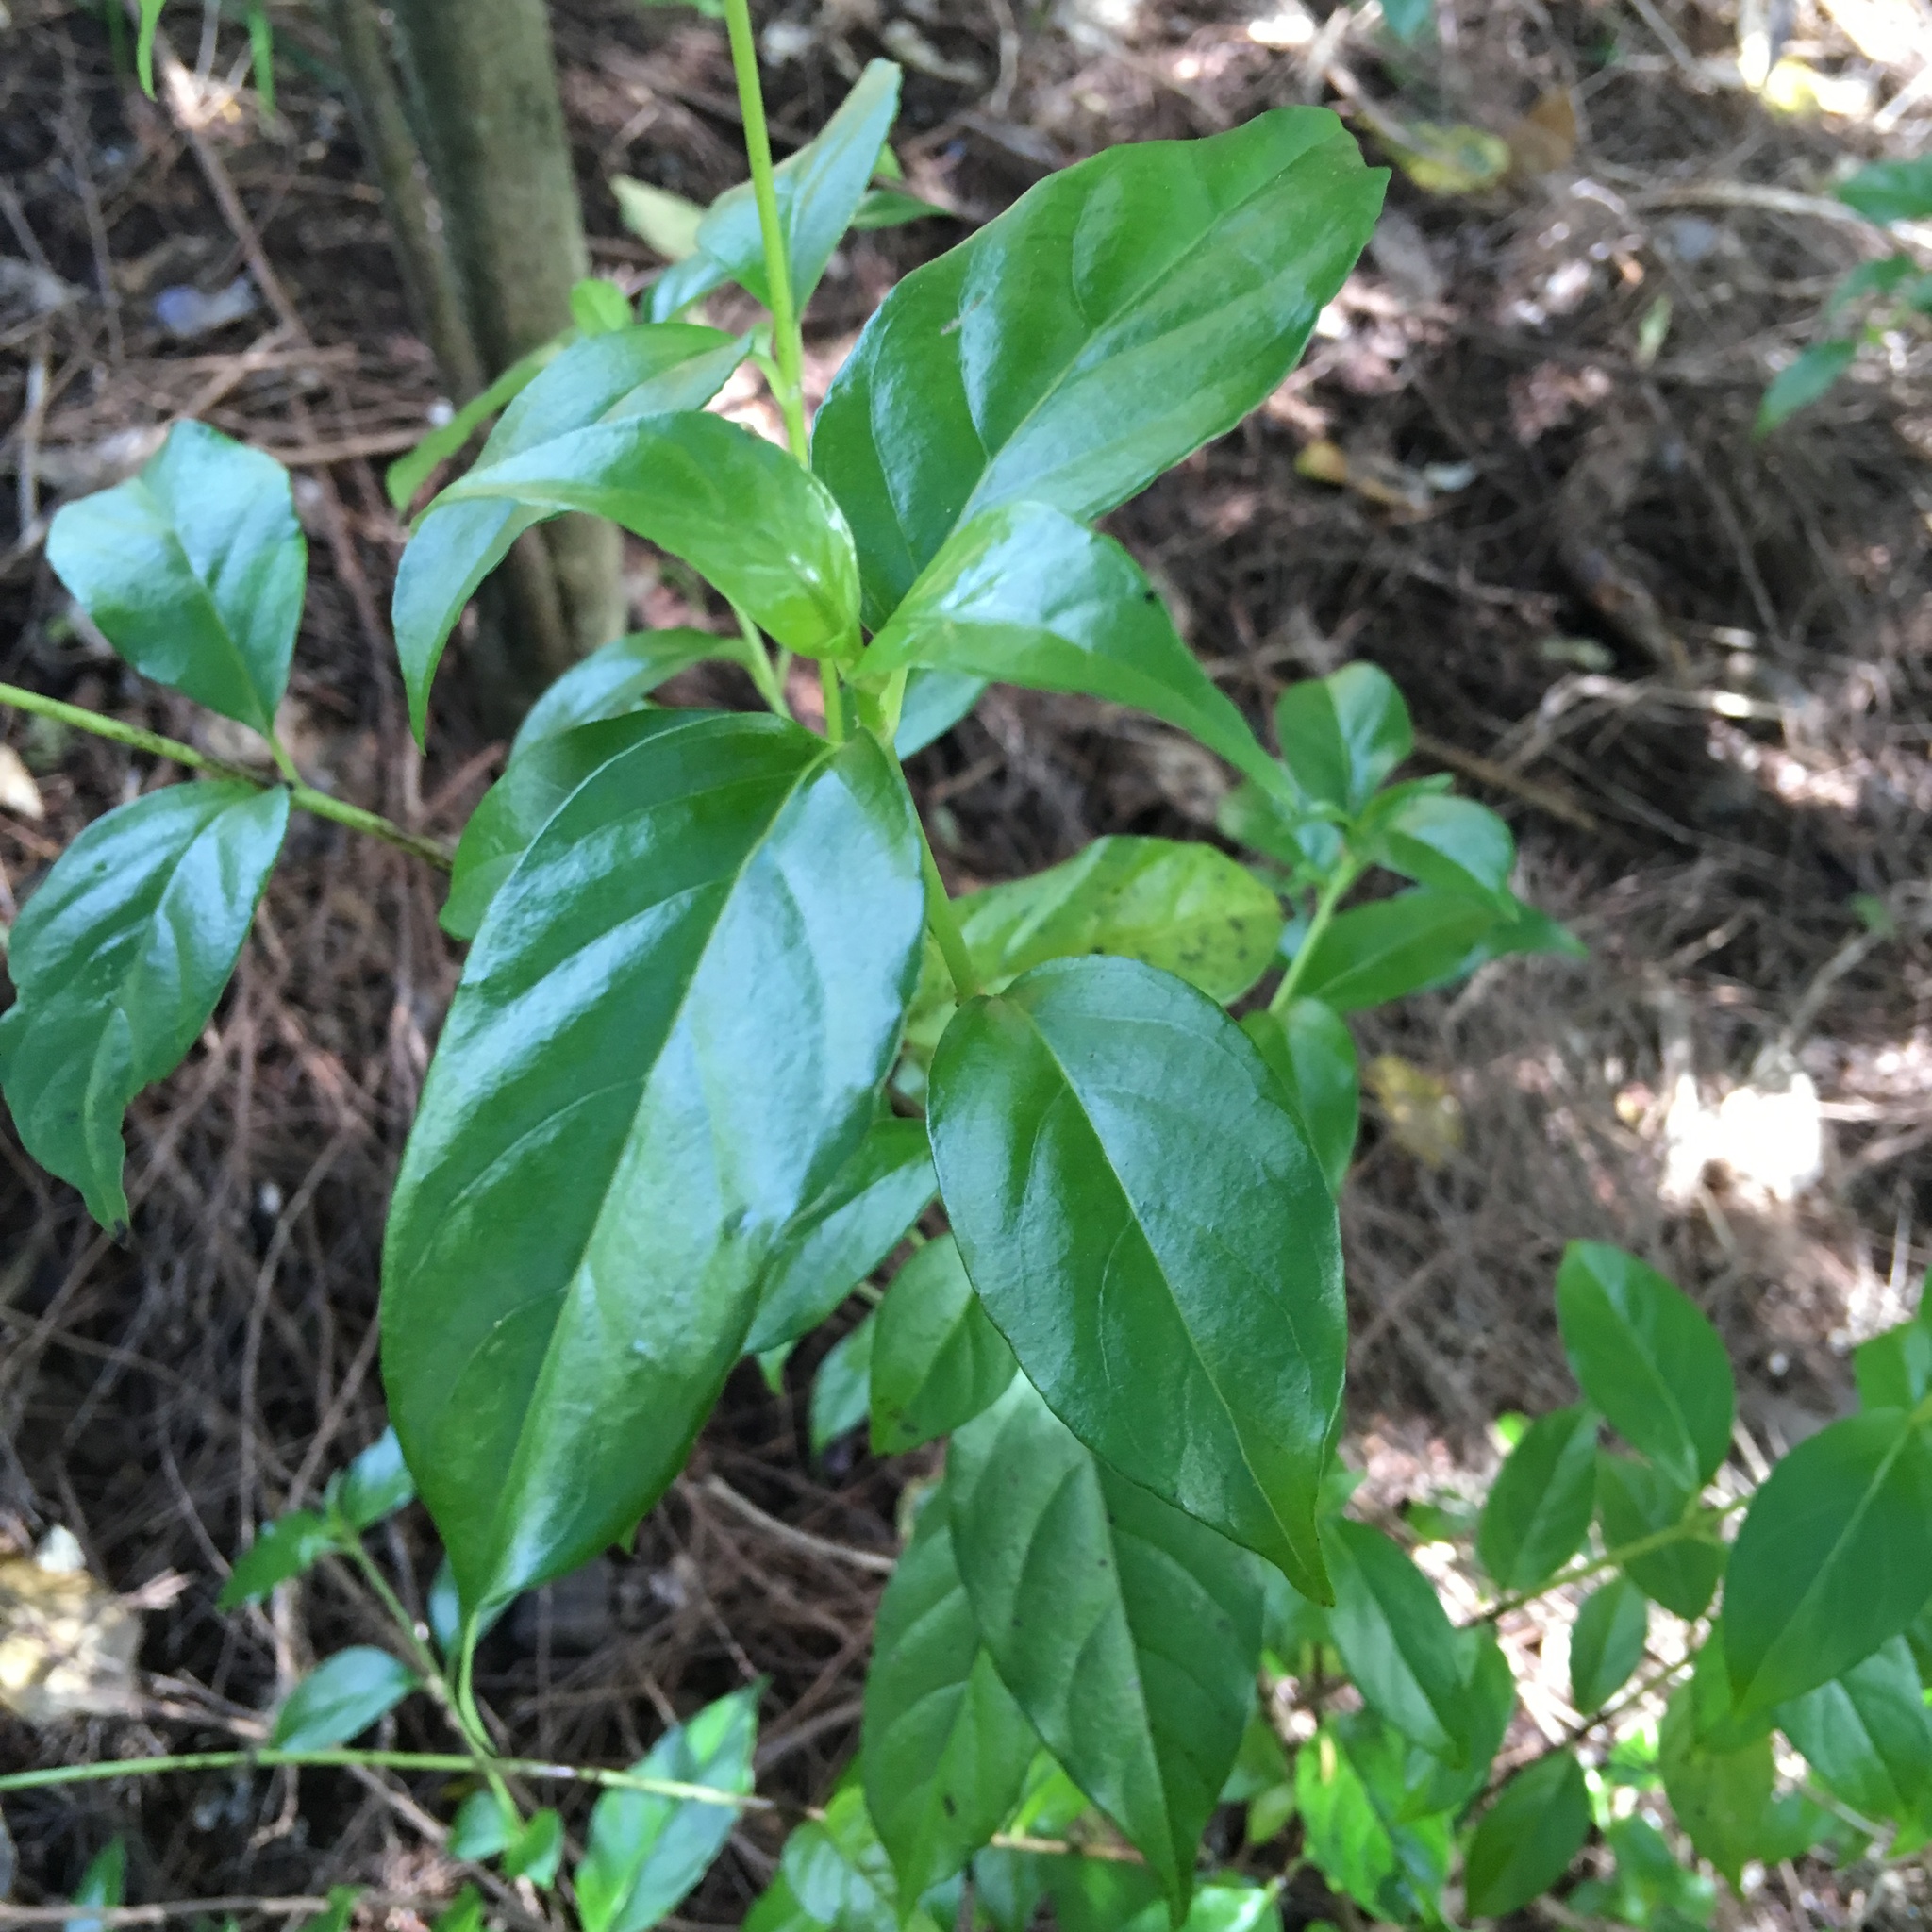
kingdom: Plantae
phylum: Tracheophyta
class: Magnoliopsida
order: Gentianales
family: Loganiaceae
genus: Geniostoma
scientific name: Geniostoma ligustrifolium
